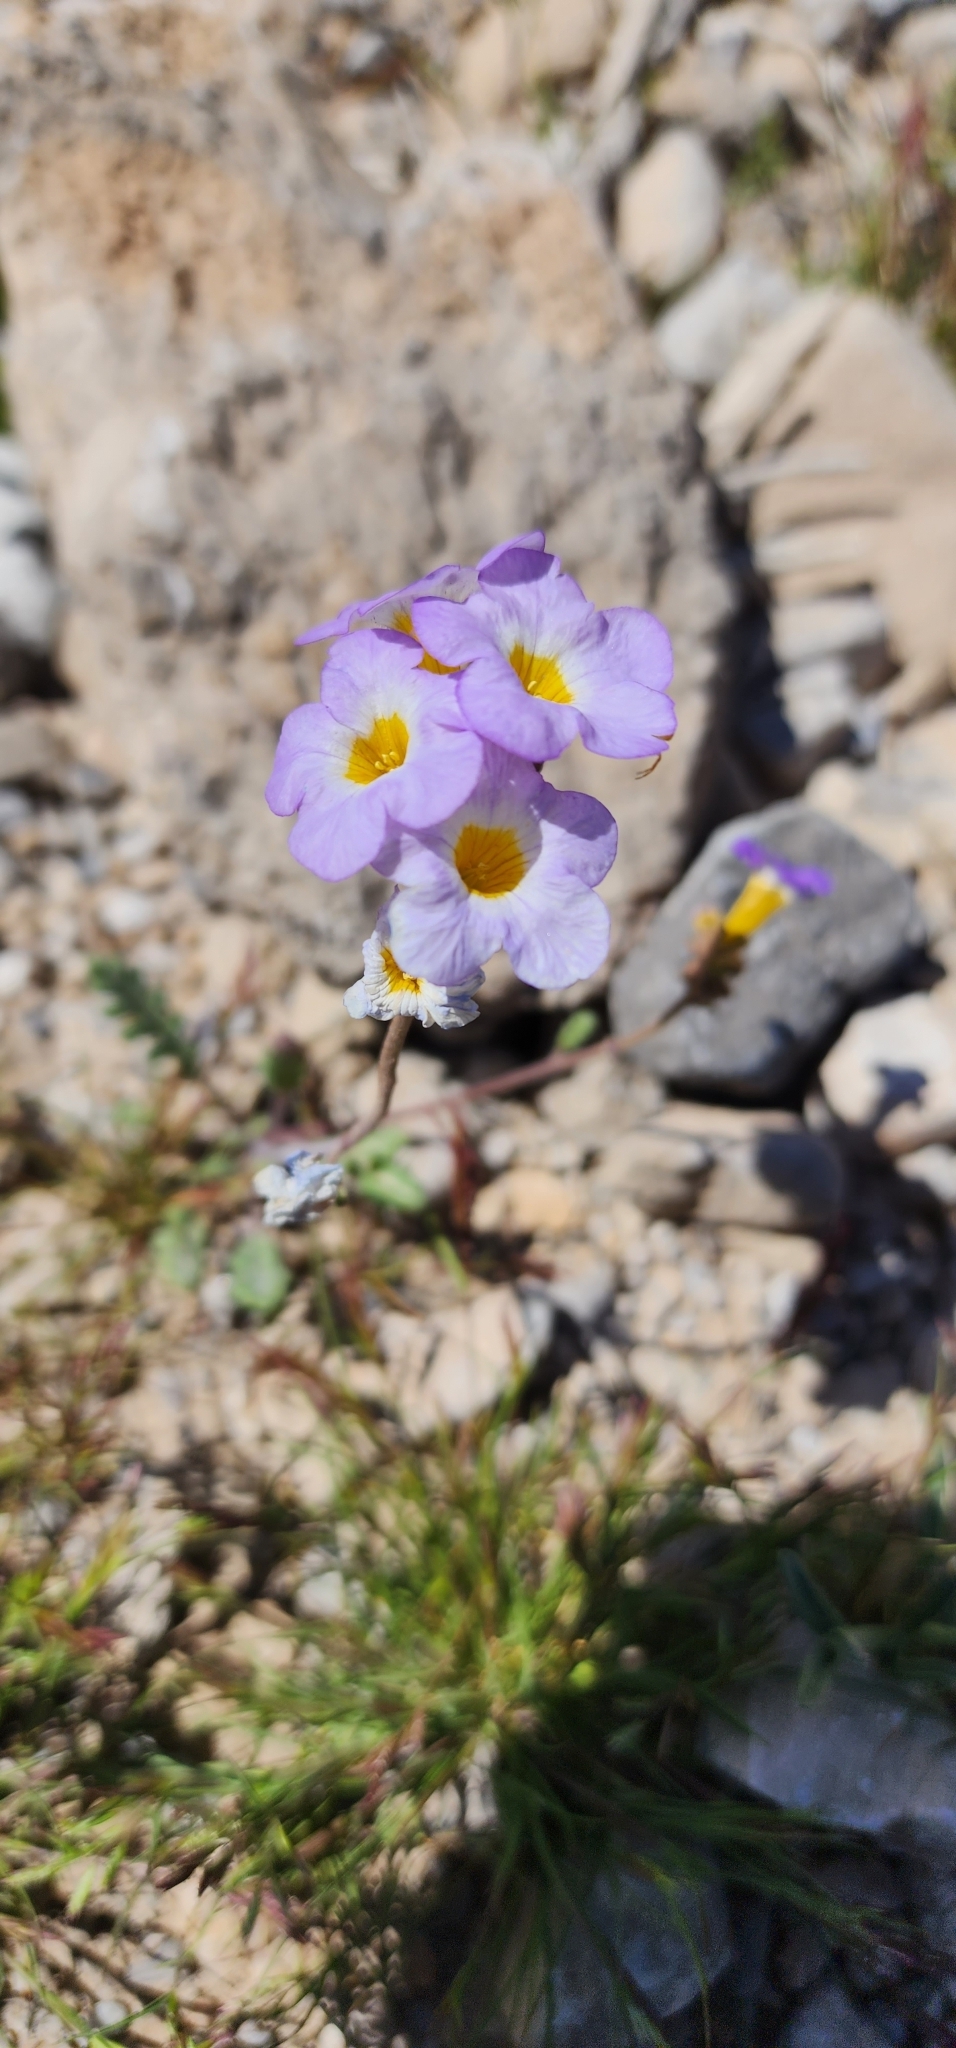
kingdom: Plantae
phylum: Tracheophyta
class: Magnoliopsida
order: Boraginales
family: Hydrophyllaceae
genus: Phacelia
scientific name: Phacelia fremontii
